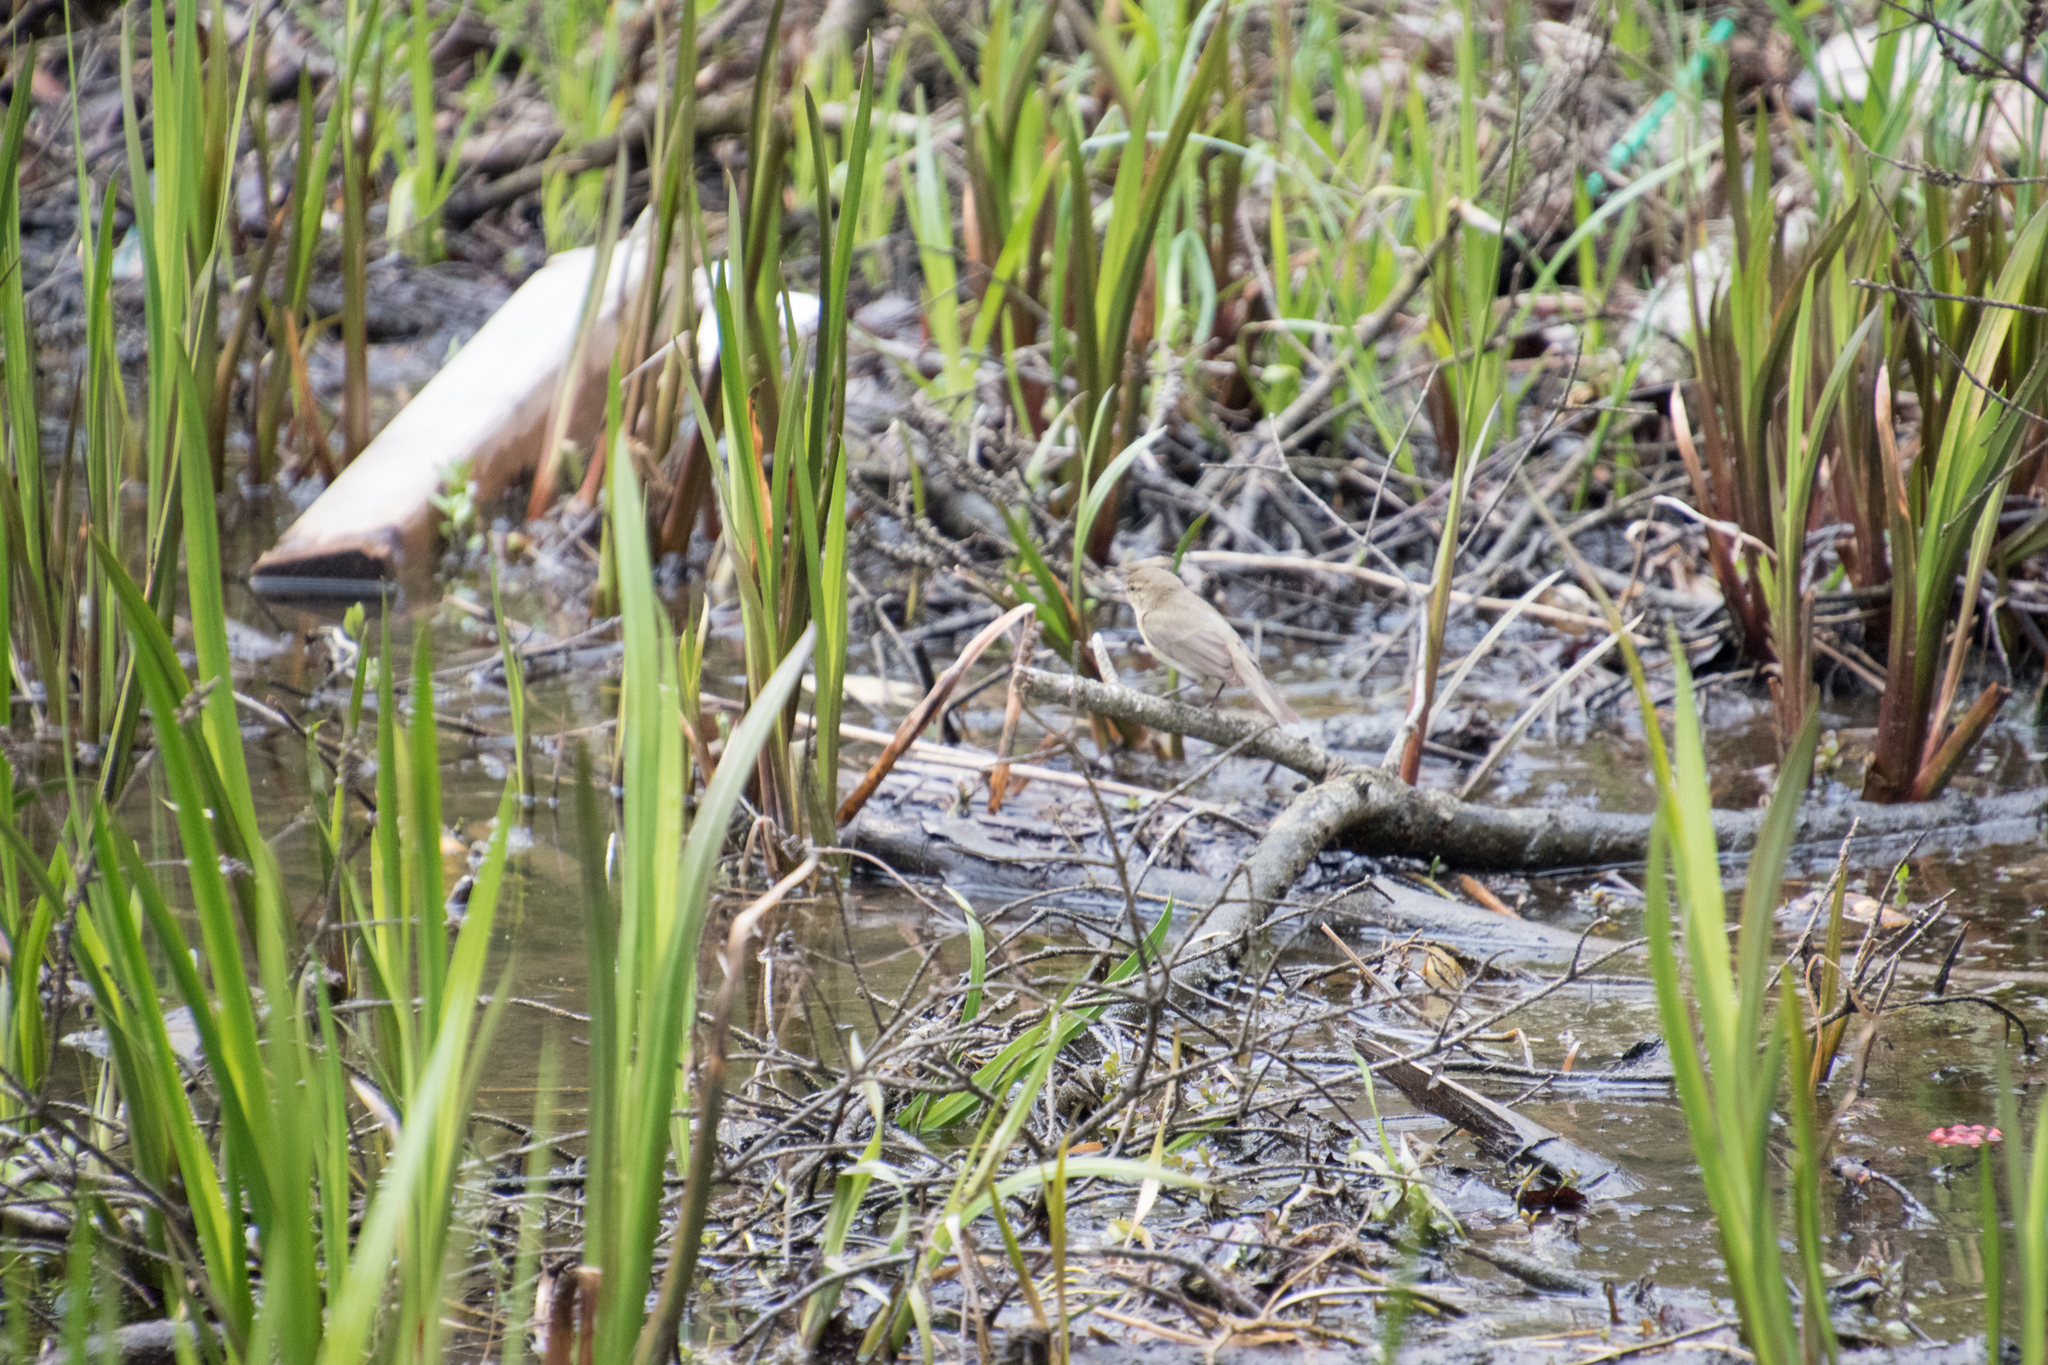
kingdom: Animalia
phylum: Chordata
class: Aves
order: Passeriformes
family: Phylloscopidae
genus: Phylloscopus
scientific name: Phylloscopus collybita
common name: Common chiffchaff
